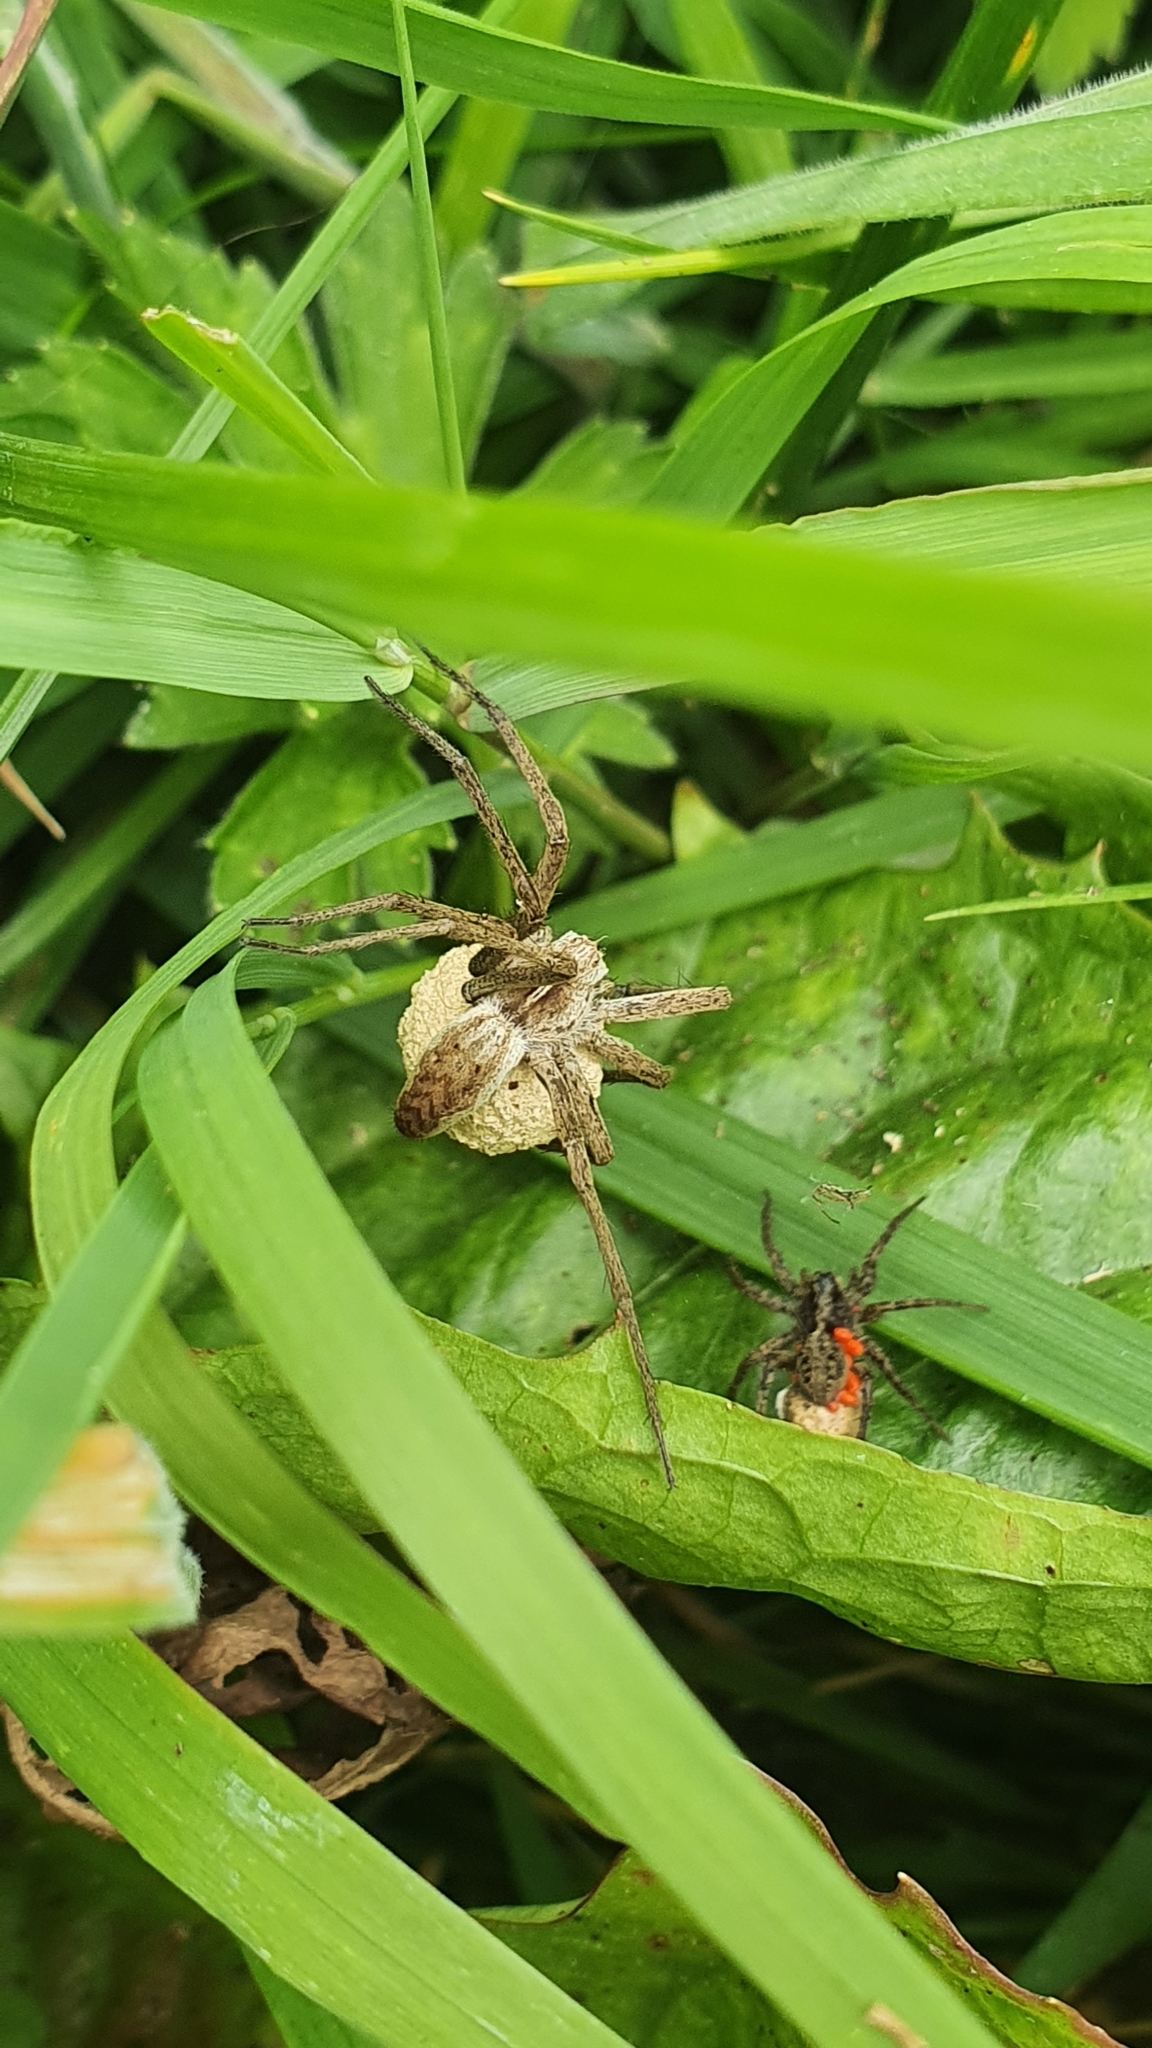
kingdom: Animalia
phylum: Arthropoda
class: Arachnida
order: Araneae
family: Pisauridae
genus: Pisaura
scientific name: Pisaura mirabilis
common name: Tent spider
